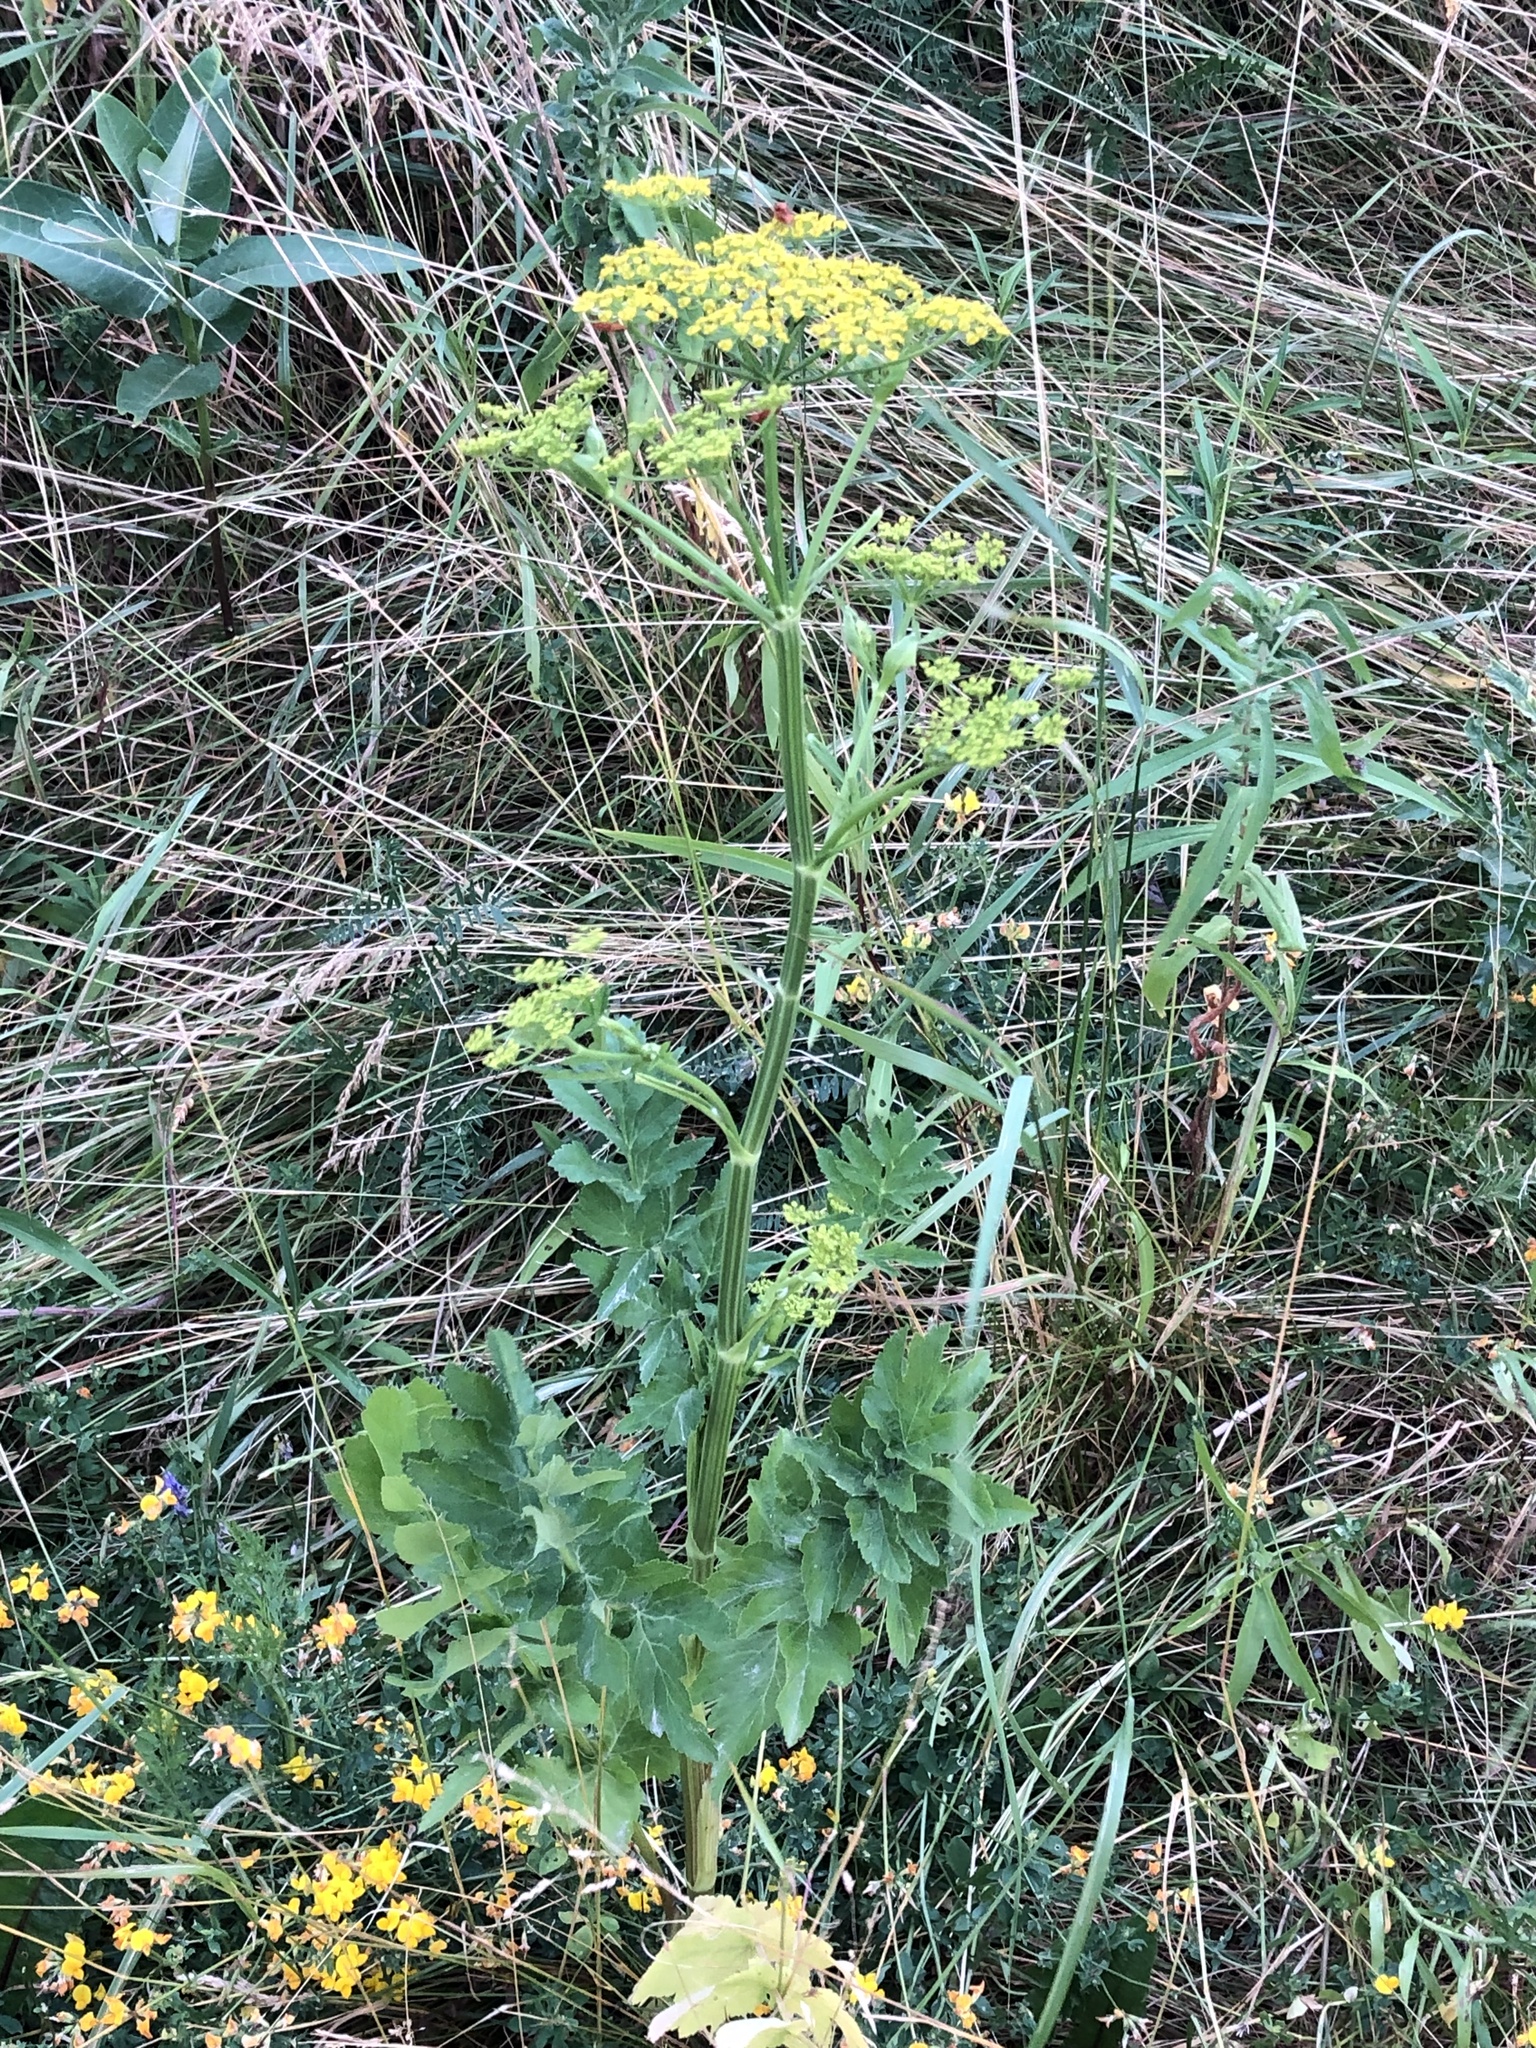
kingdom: Plantae
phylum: Tracheophyta
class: Magnoliopsida
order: Apiales
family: Apiaceae
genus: Pastinaca
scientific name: Pastinaca sativa
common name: Wild parsnip
